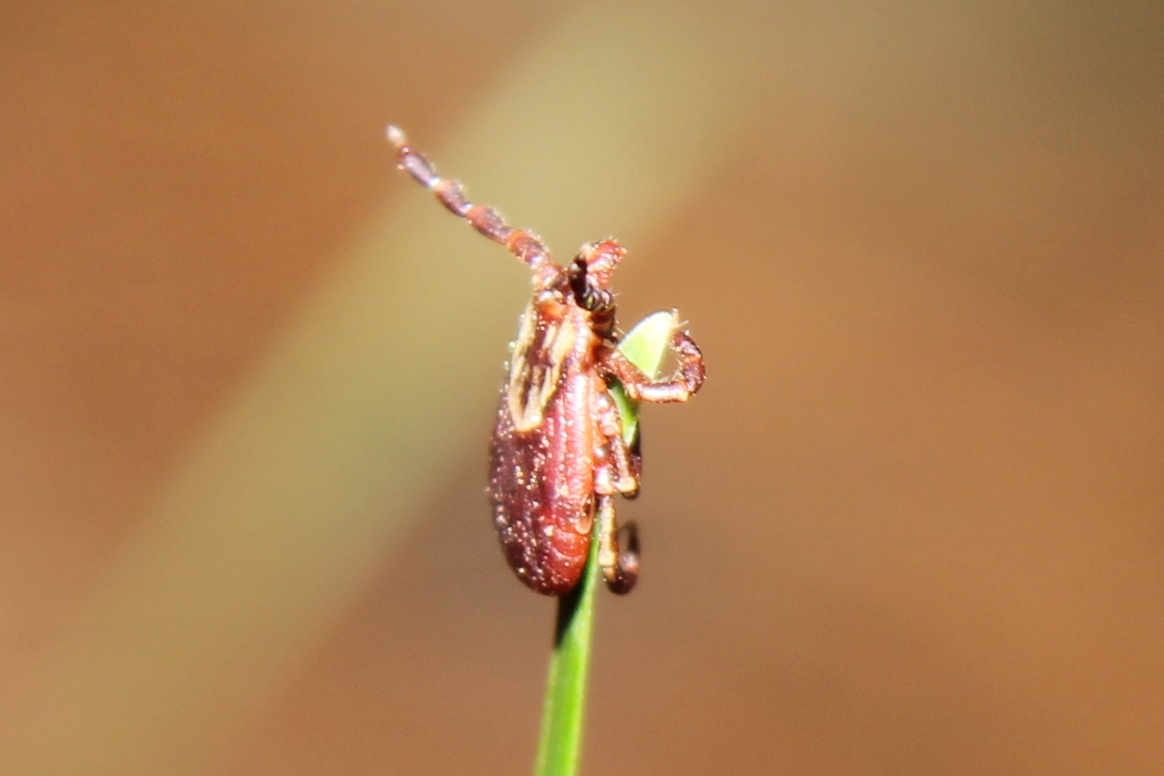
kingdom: Animalia
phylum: Arthropoda
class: Arachnida
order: Ixodida
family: Ixodidae
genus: Dermacentor
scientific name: Dermacentor variabilis
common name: American dog tick
